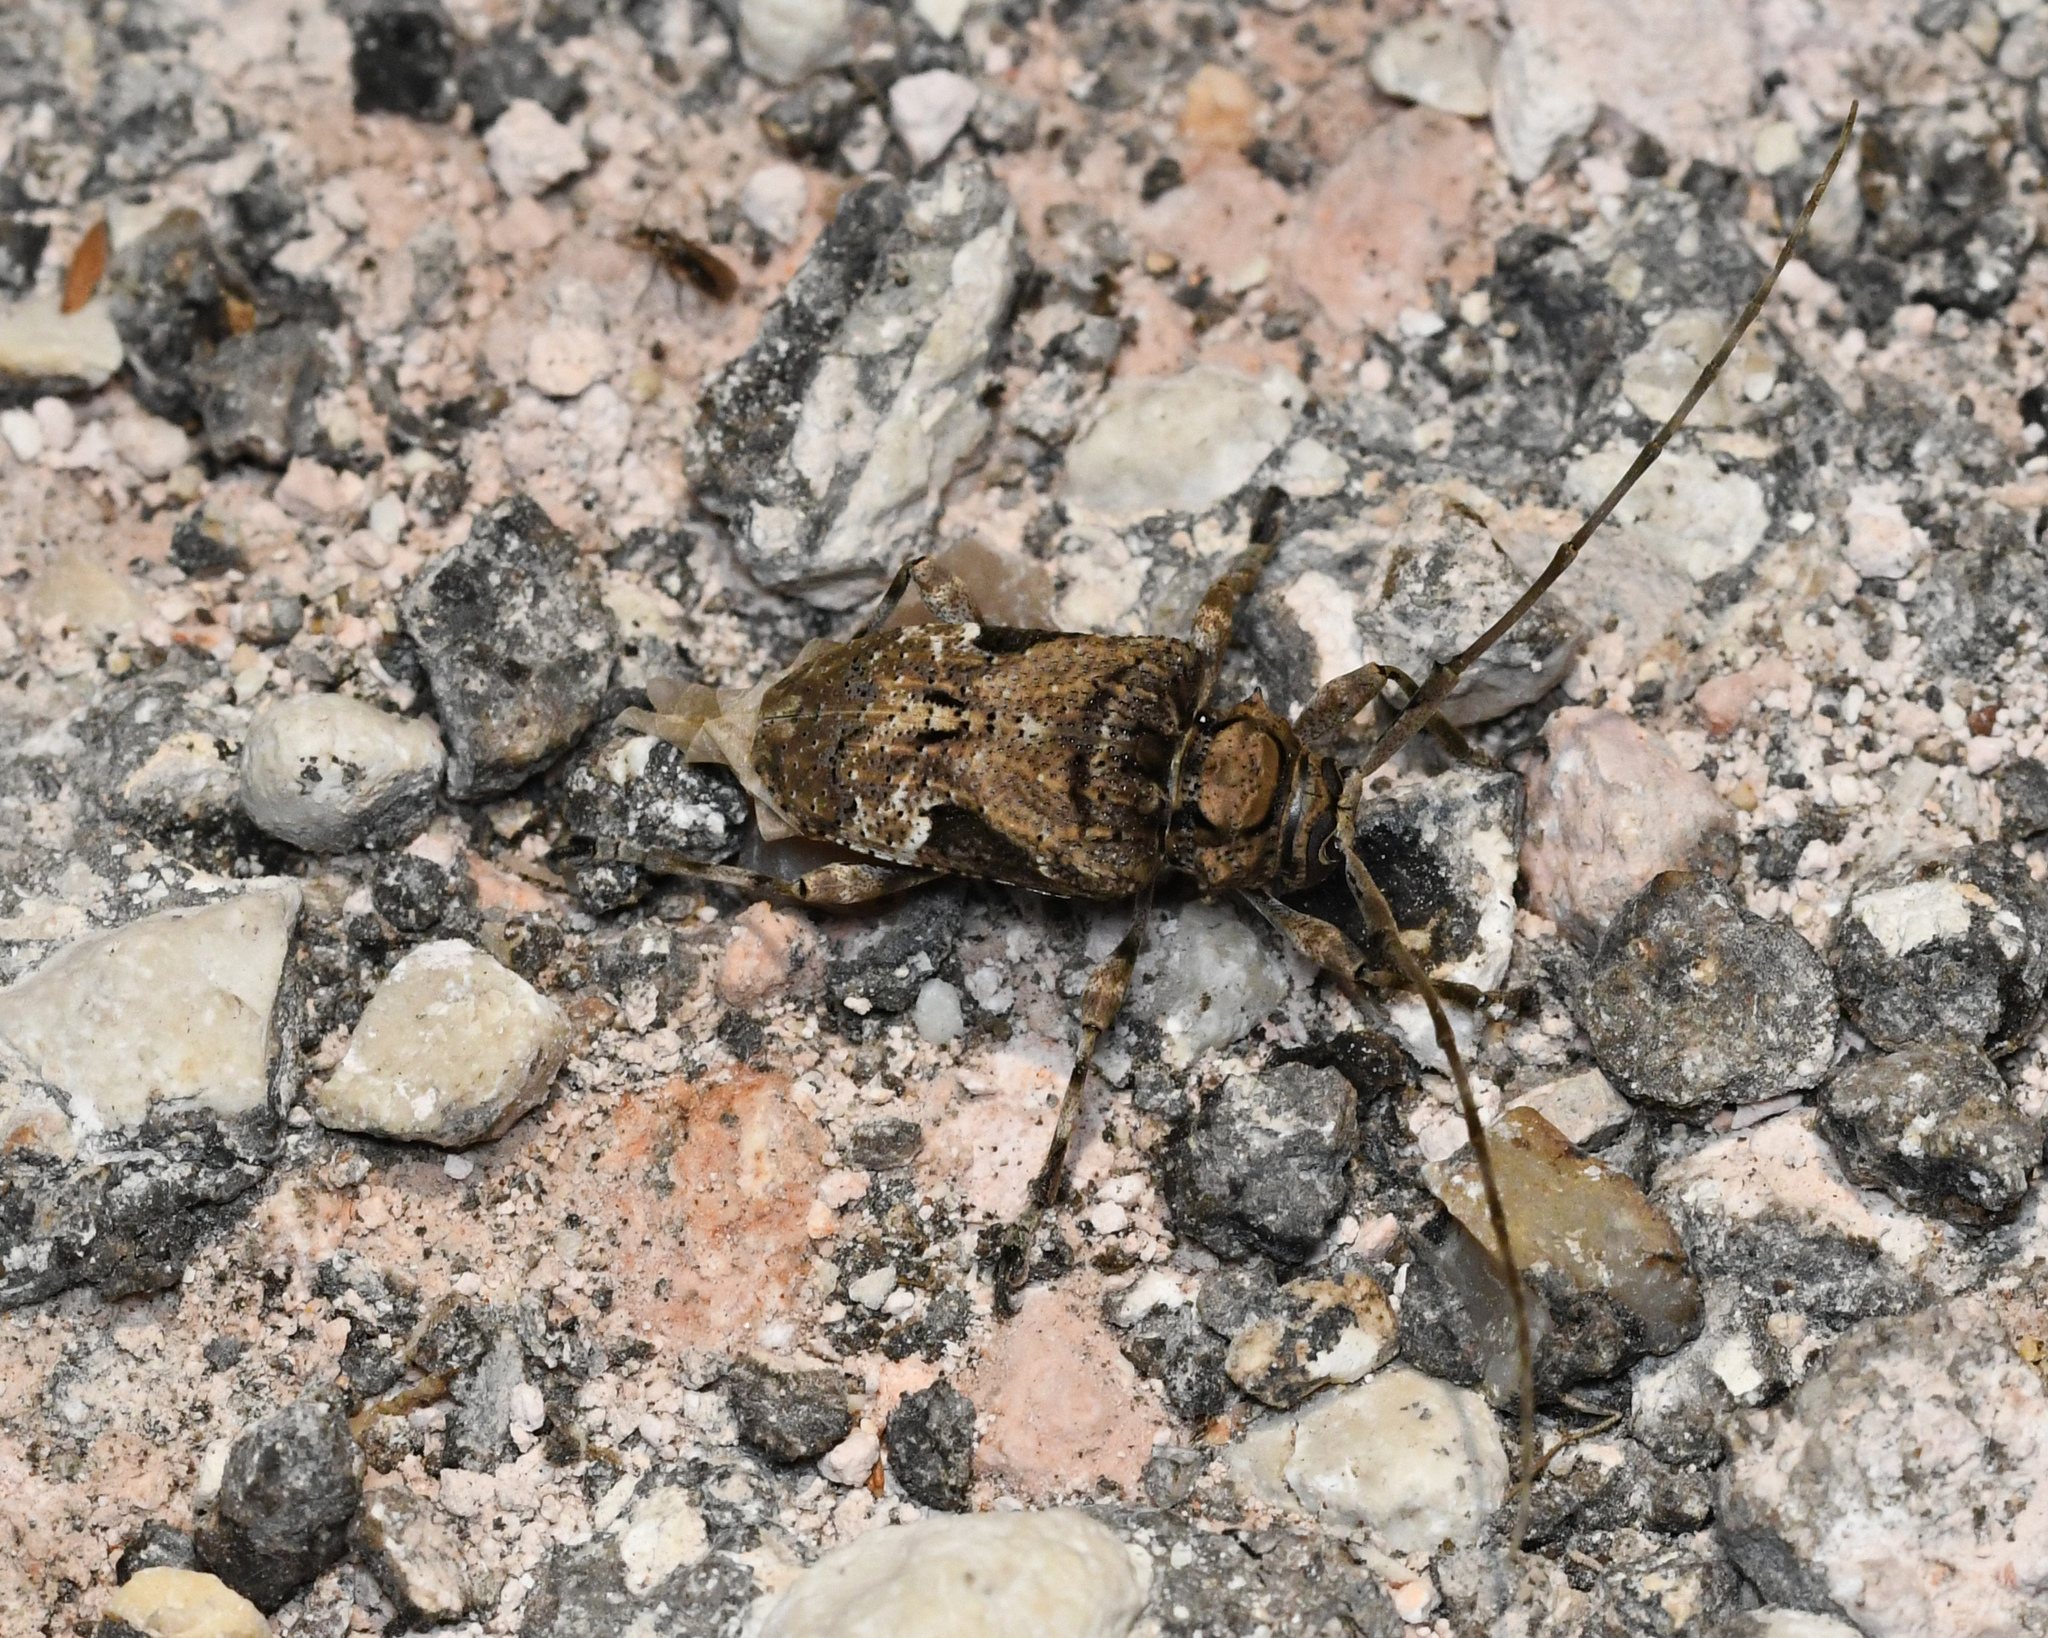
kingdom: Animalia
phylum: Arthropoda
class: Insecta
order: Coleoptera
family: Cerambycidae
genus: Lagocheirus
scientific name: Lagocheirus araneiformis
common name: Beetle
